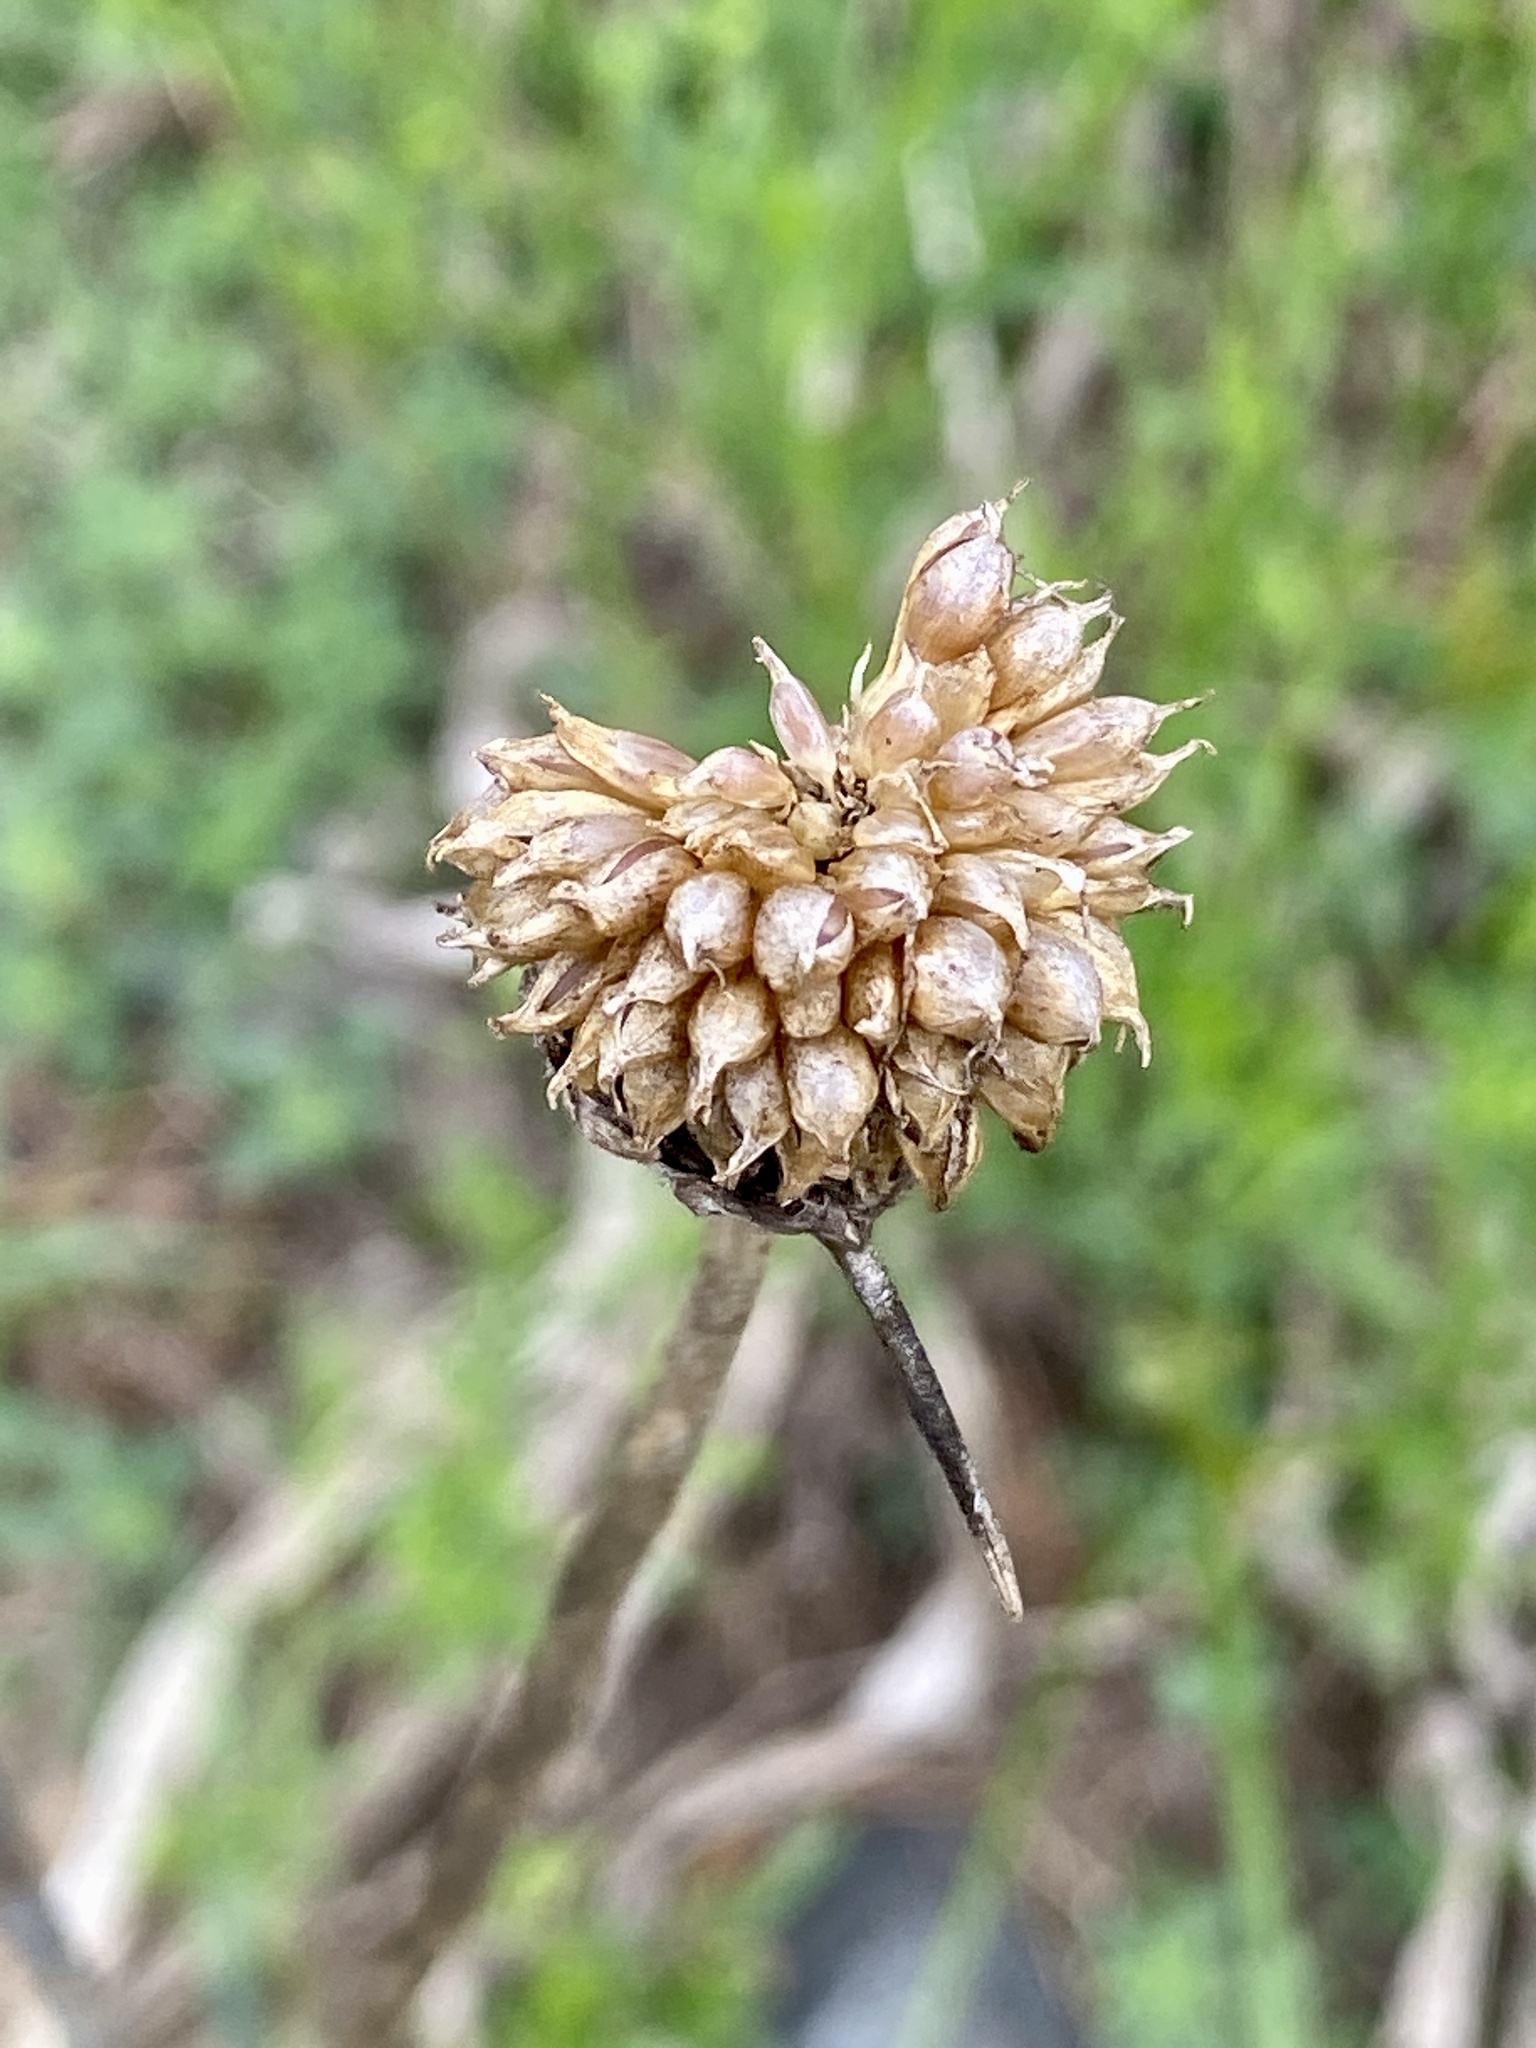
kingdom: Plantae
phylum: Tracheophyta
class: Liliopsida
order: Asparagales
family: Amaryllidaceae
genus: Allium
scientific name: Allium vineale
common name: Crow garlic
